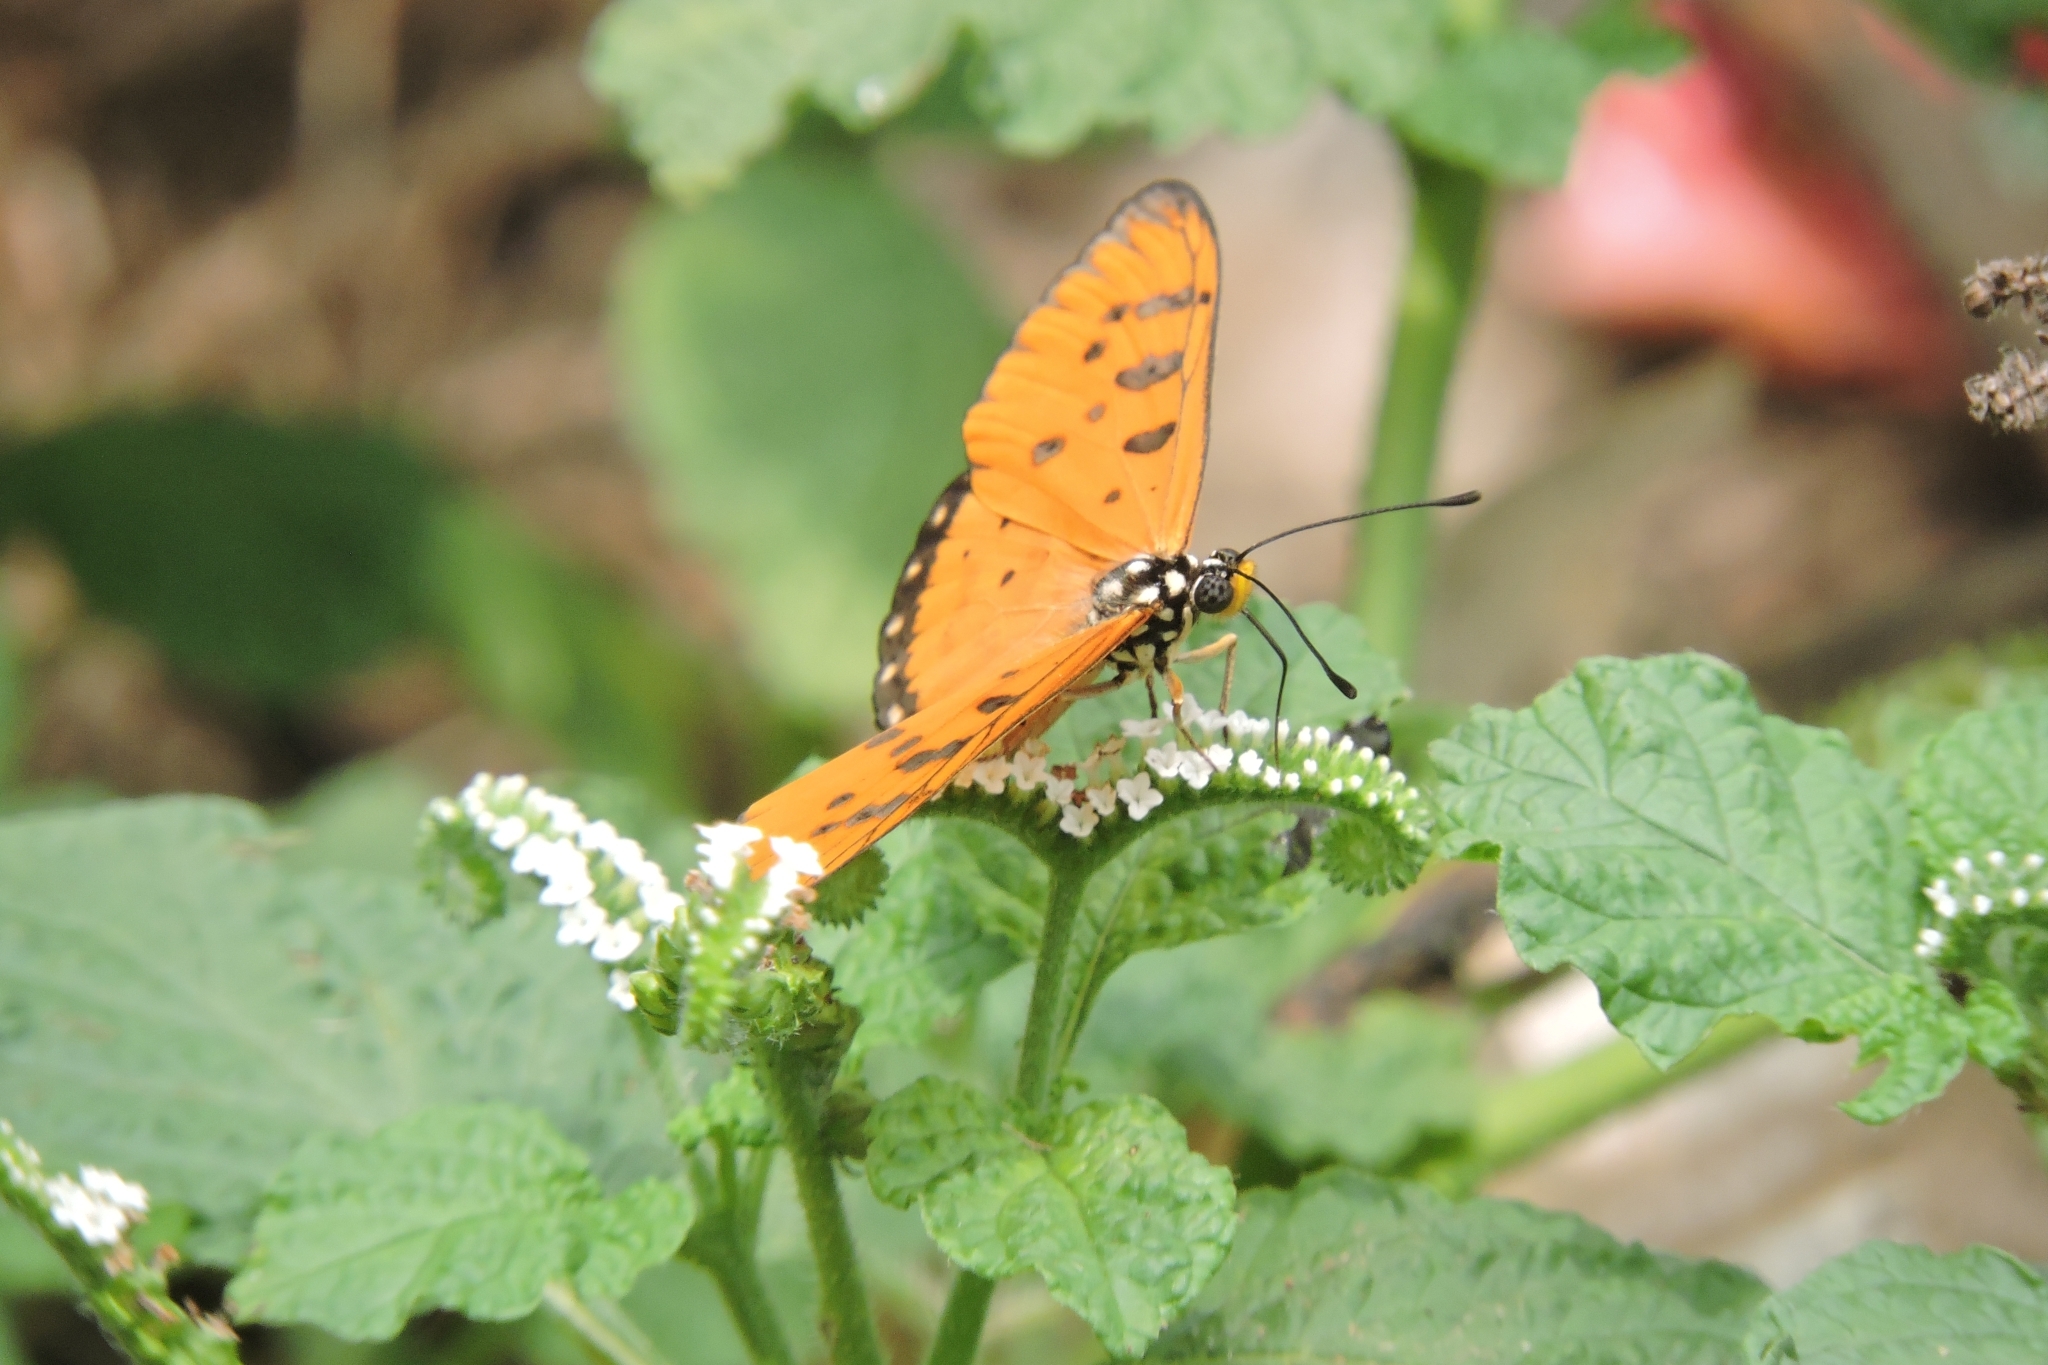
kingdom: Animalia
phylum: Arthropoda
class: Insecta
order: Lepidoptera
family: Nymphalidae
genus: Acraea
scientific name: Acraea terpsicore
